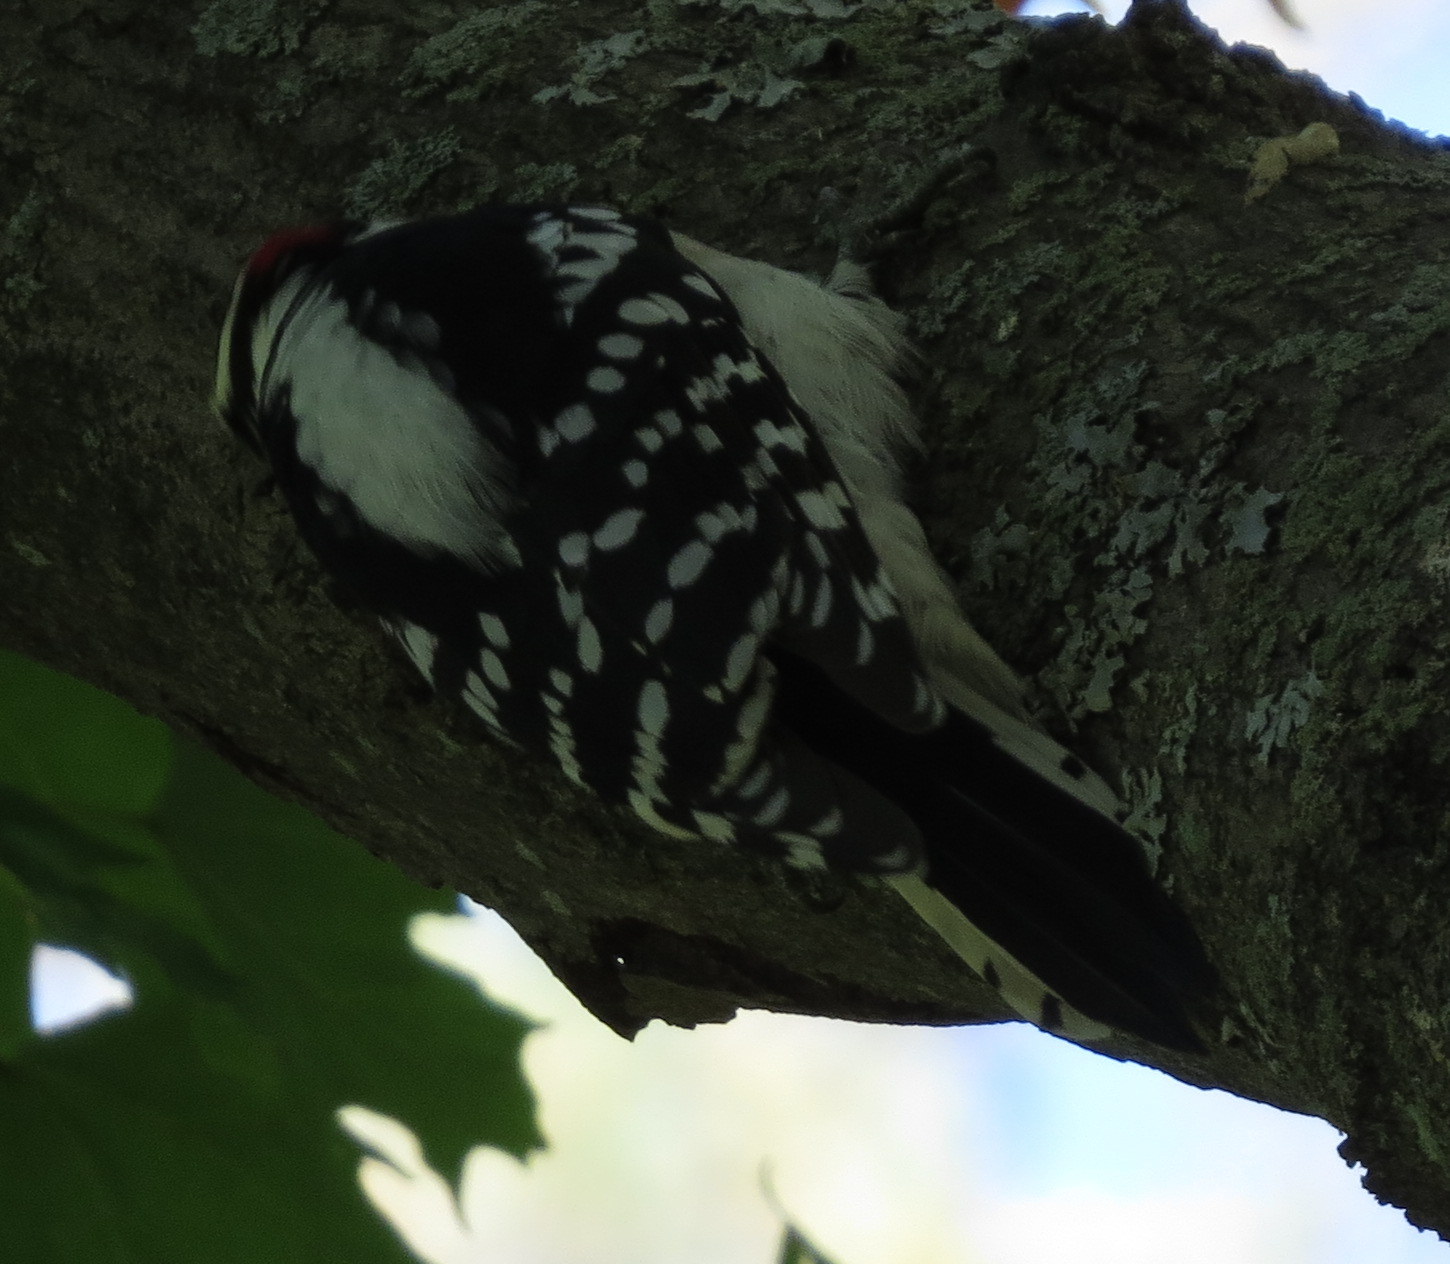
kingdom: Animalia
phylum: Chordata
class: Aves
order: Piciformes
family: Picidae
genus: Dryobates
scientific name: Dryobates pubescens
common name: Downy woodpecker
